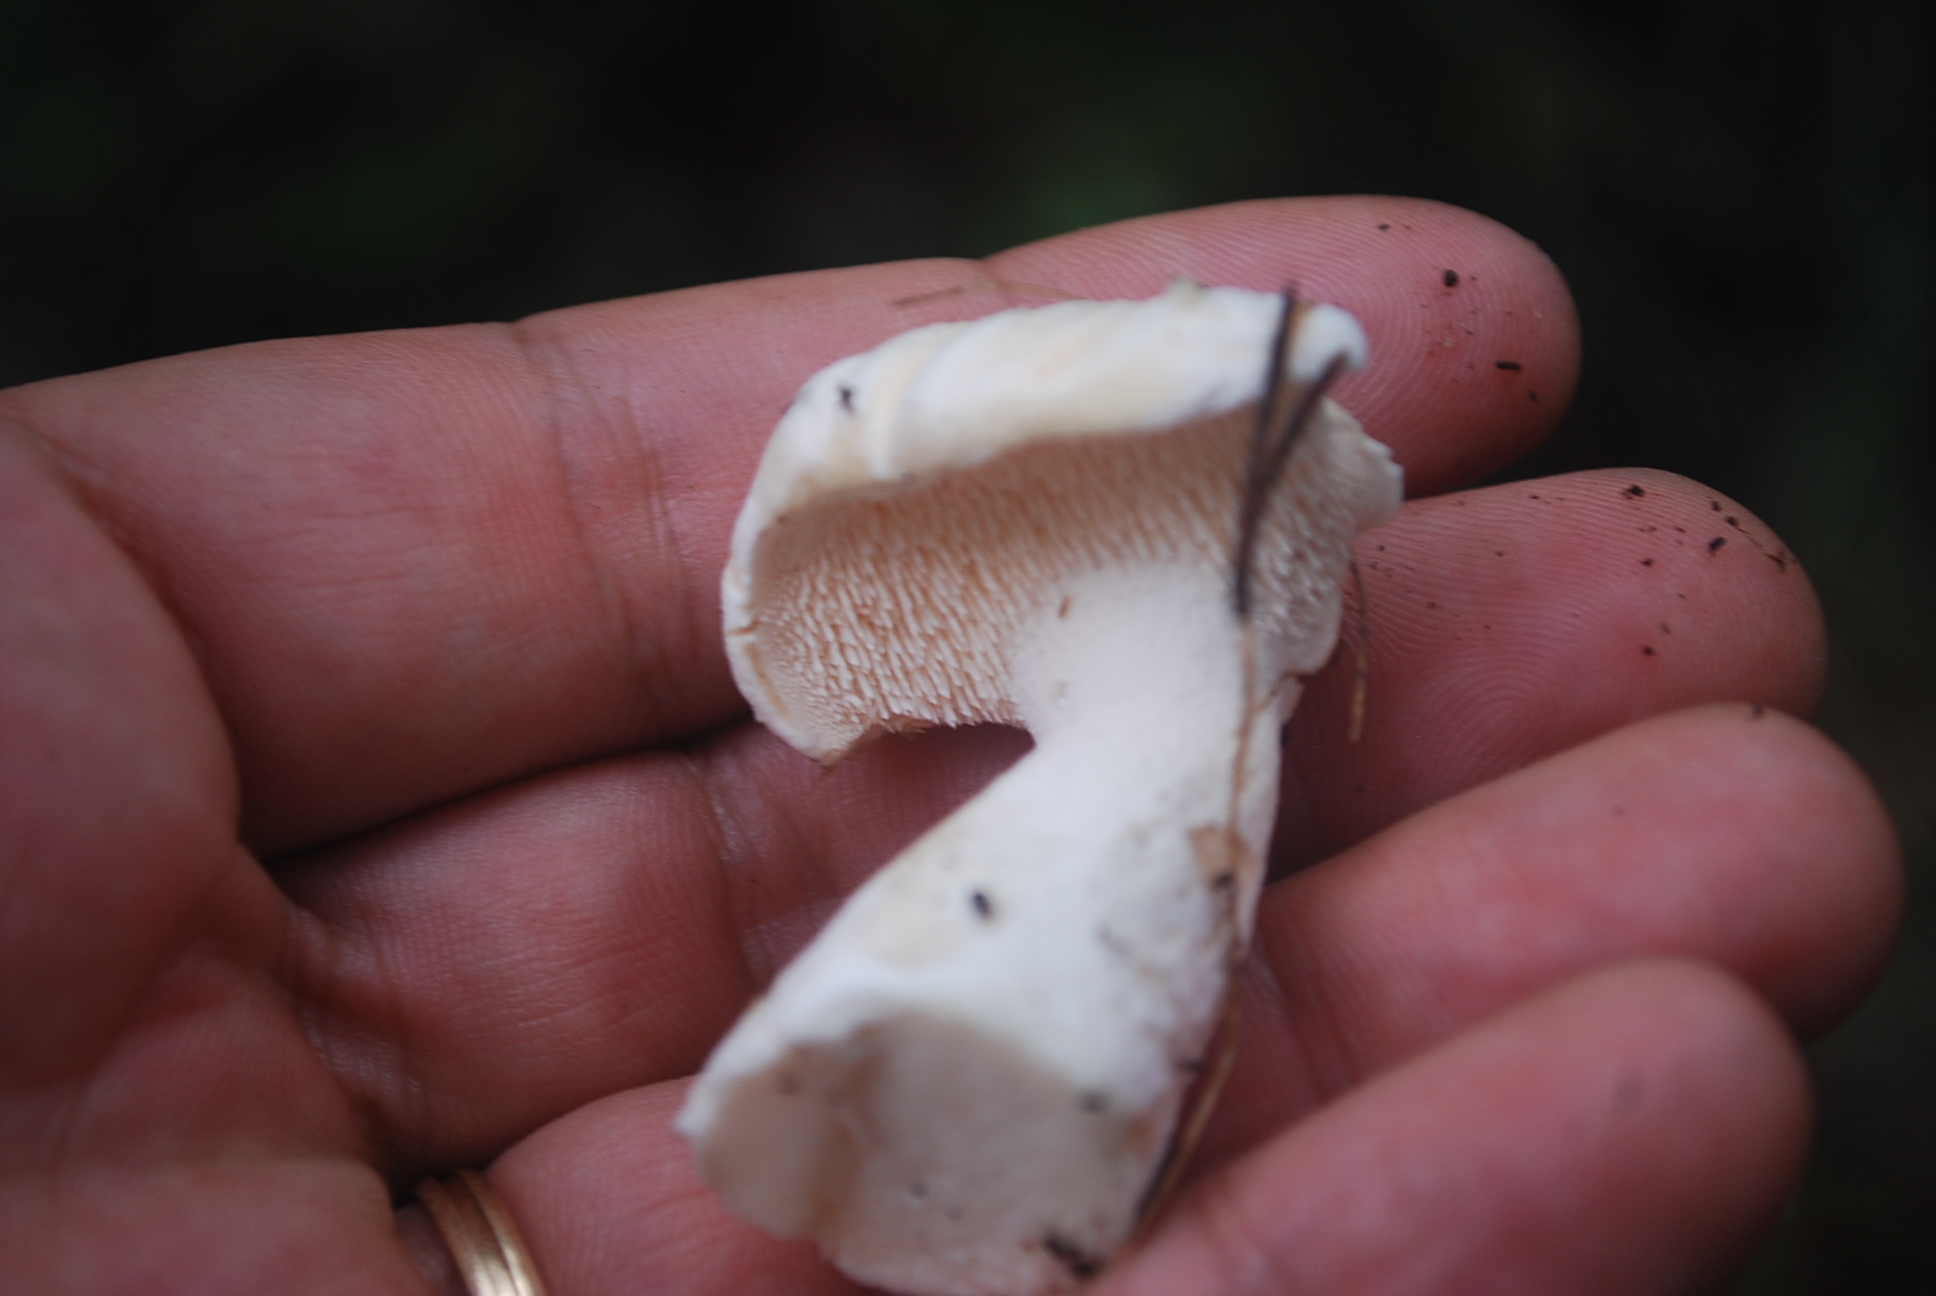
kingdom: Fungi
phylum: Basidiomycota
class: Agaricomycetes
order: Cantharellales
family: Hydnaceae
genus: Hydnum
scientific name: Hydnum repandum
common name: Wood hedgehog
